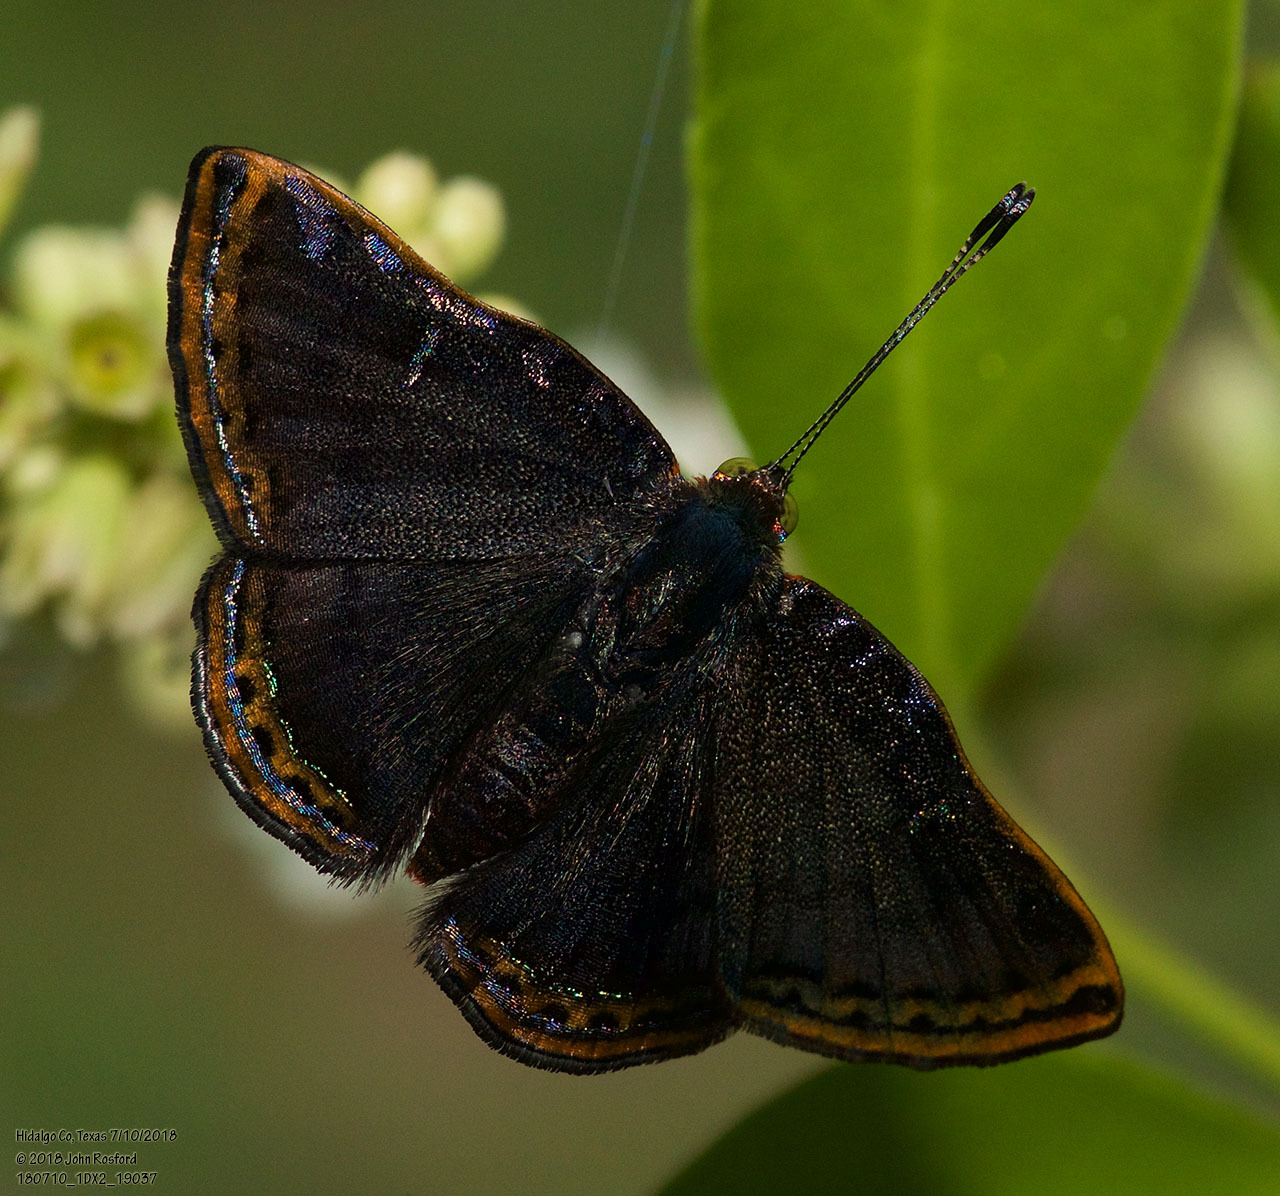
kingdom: Animalia
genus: Caria
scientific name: Caria ino
